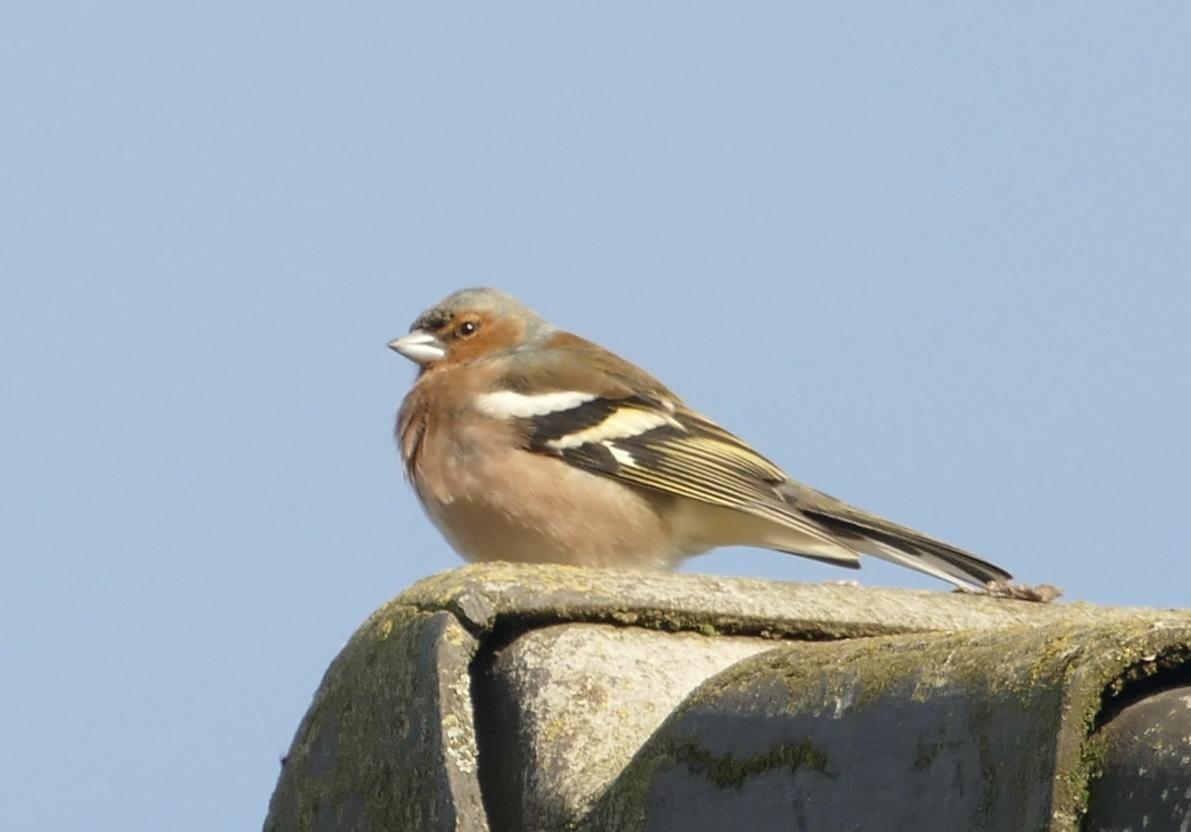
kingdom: Animalia
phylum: Chordata
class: Aves
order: Passeriformes
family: Fringillidae
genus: Fringilla
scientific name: Fringilla coelebs
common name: Common chaffinch
